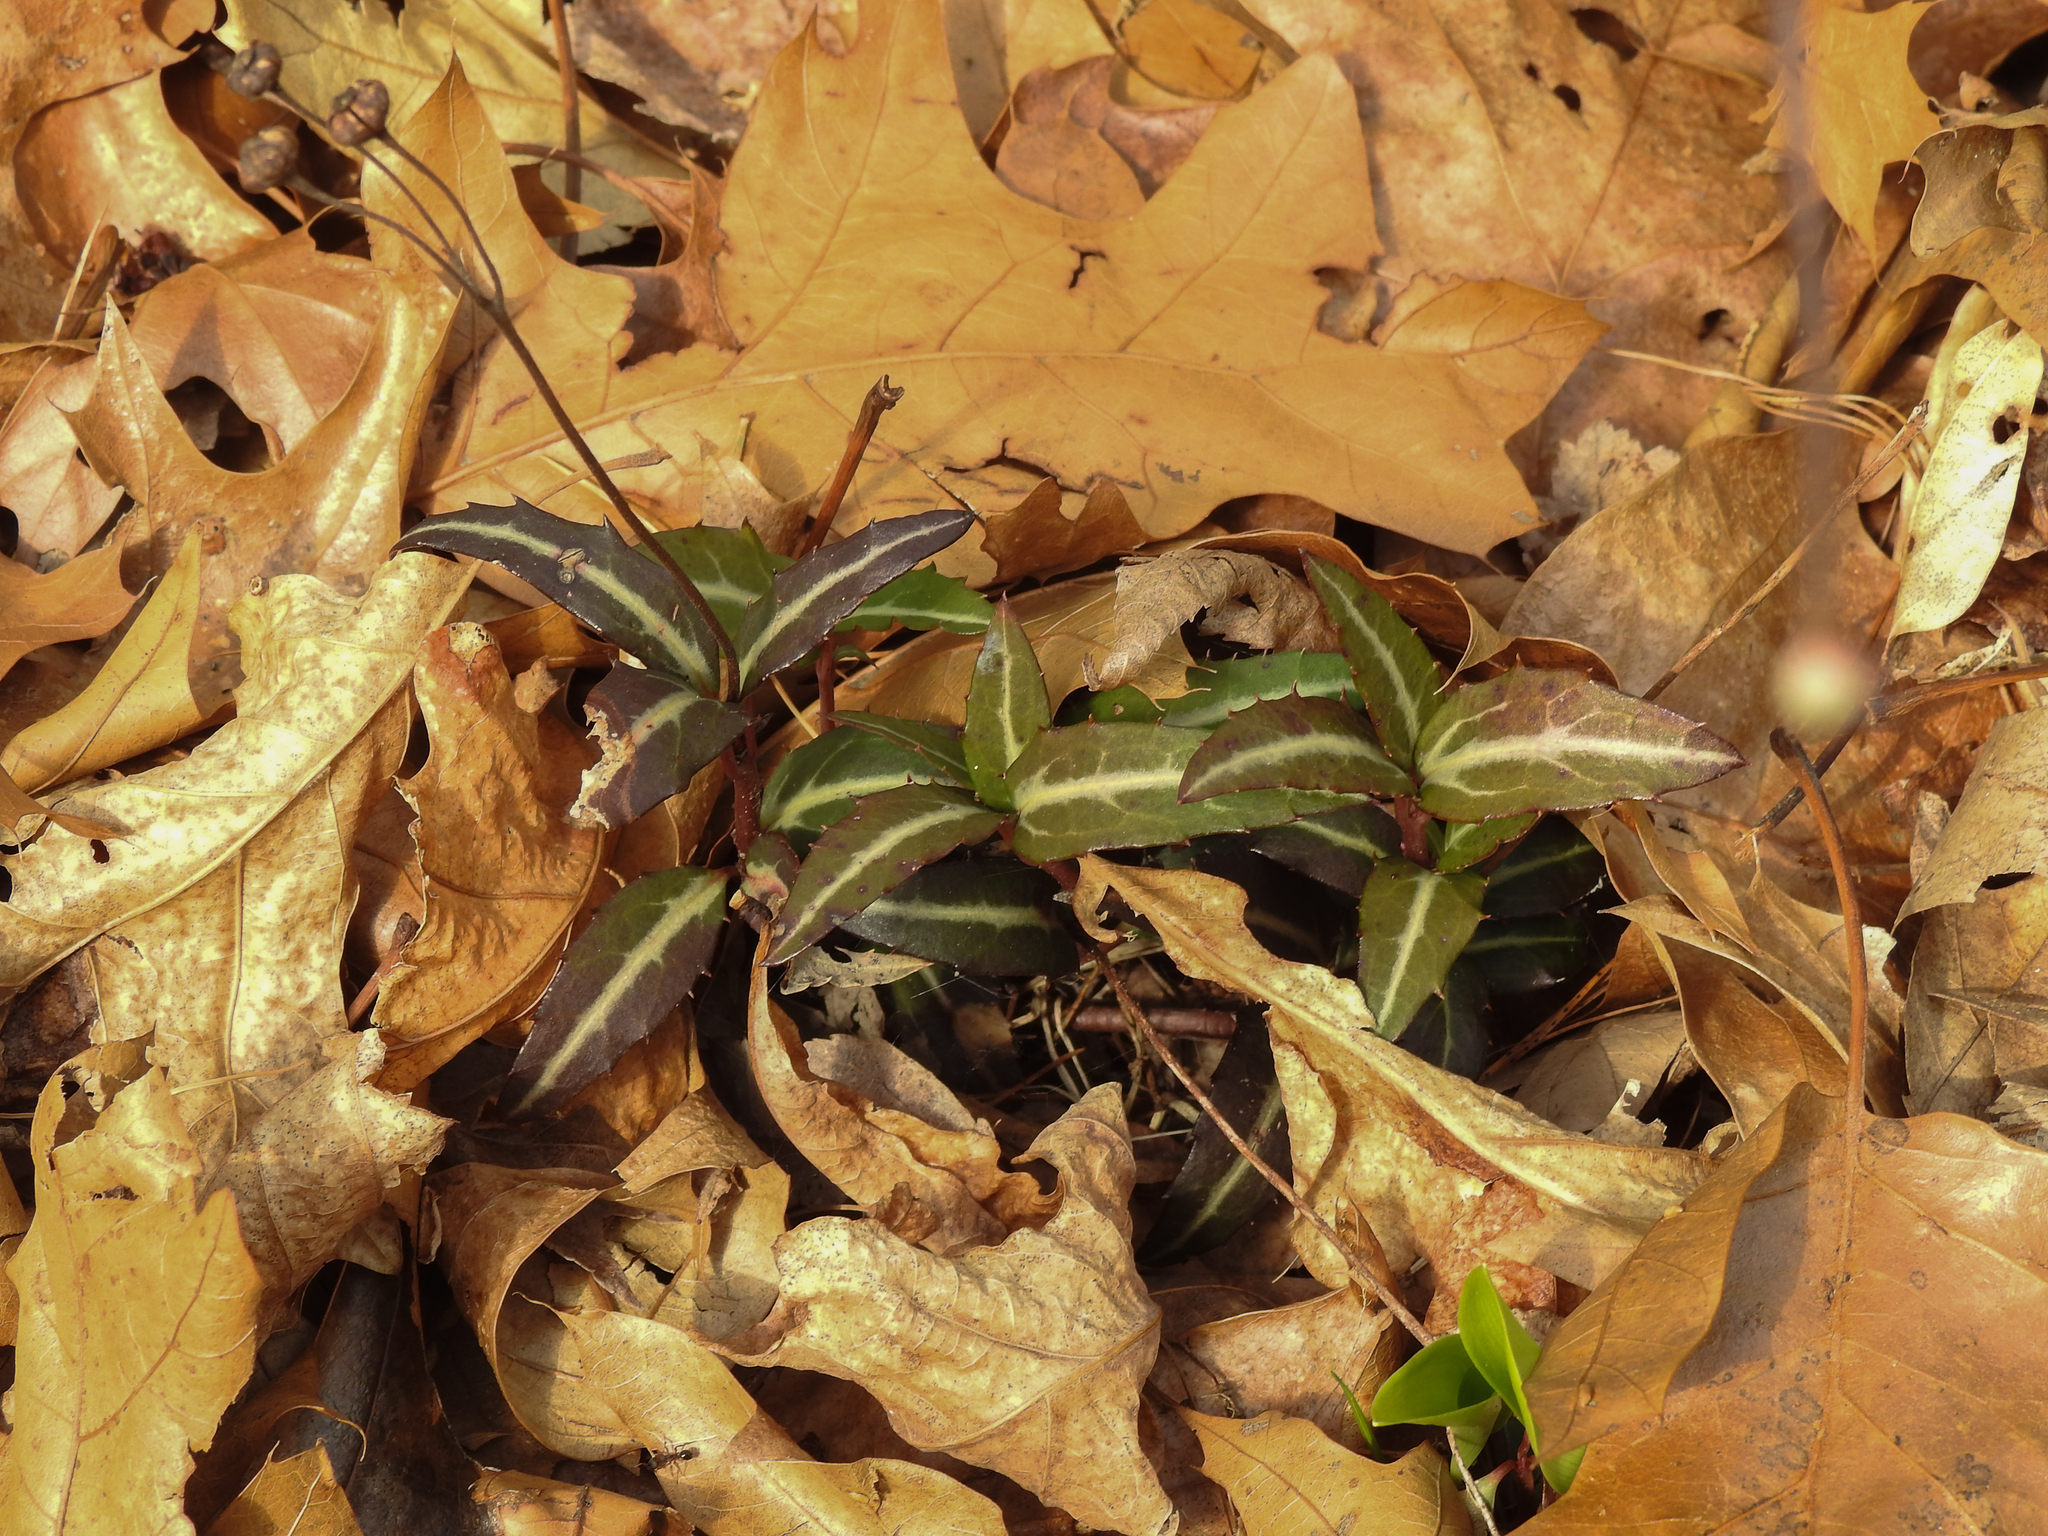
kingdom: Plantae
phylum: Tracheophyta
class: Magnoliopsida
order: Ericales
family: Ericaceae
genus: Chimaphila
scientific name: Chimaphila maculata
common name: Spotted pipsissewa
